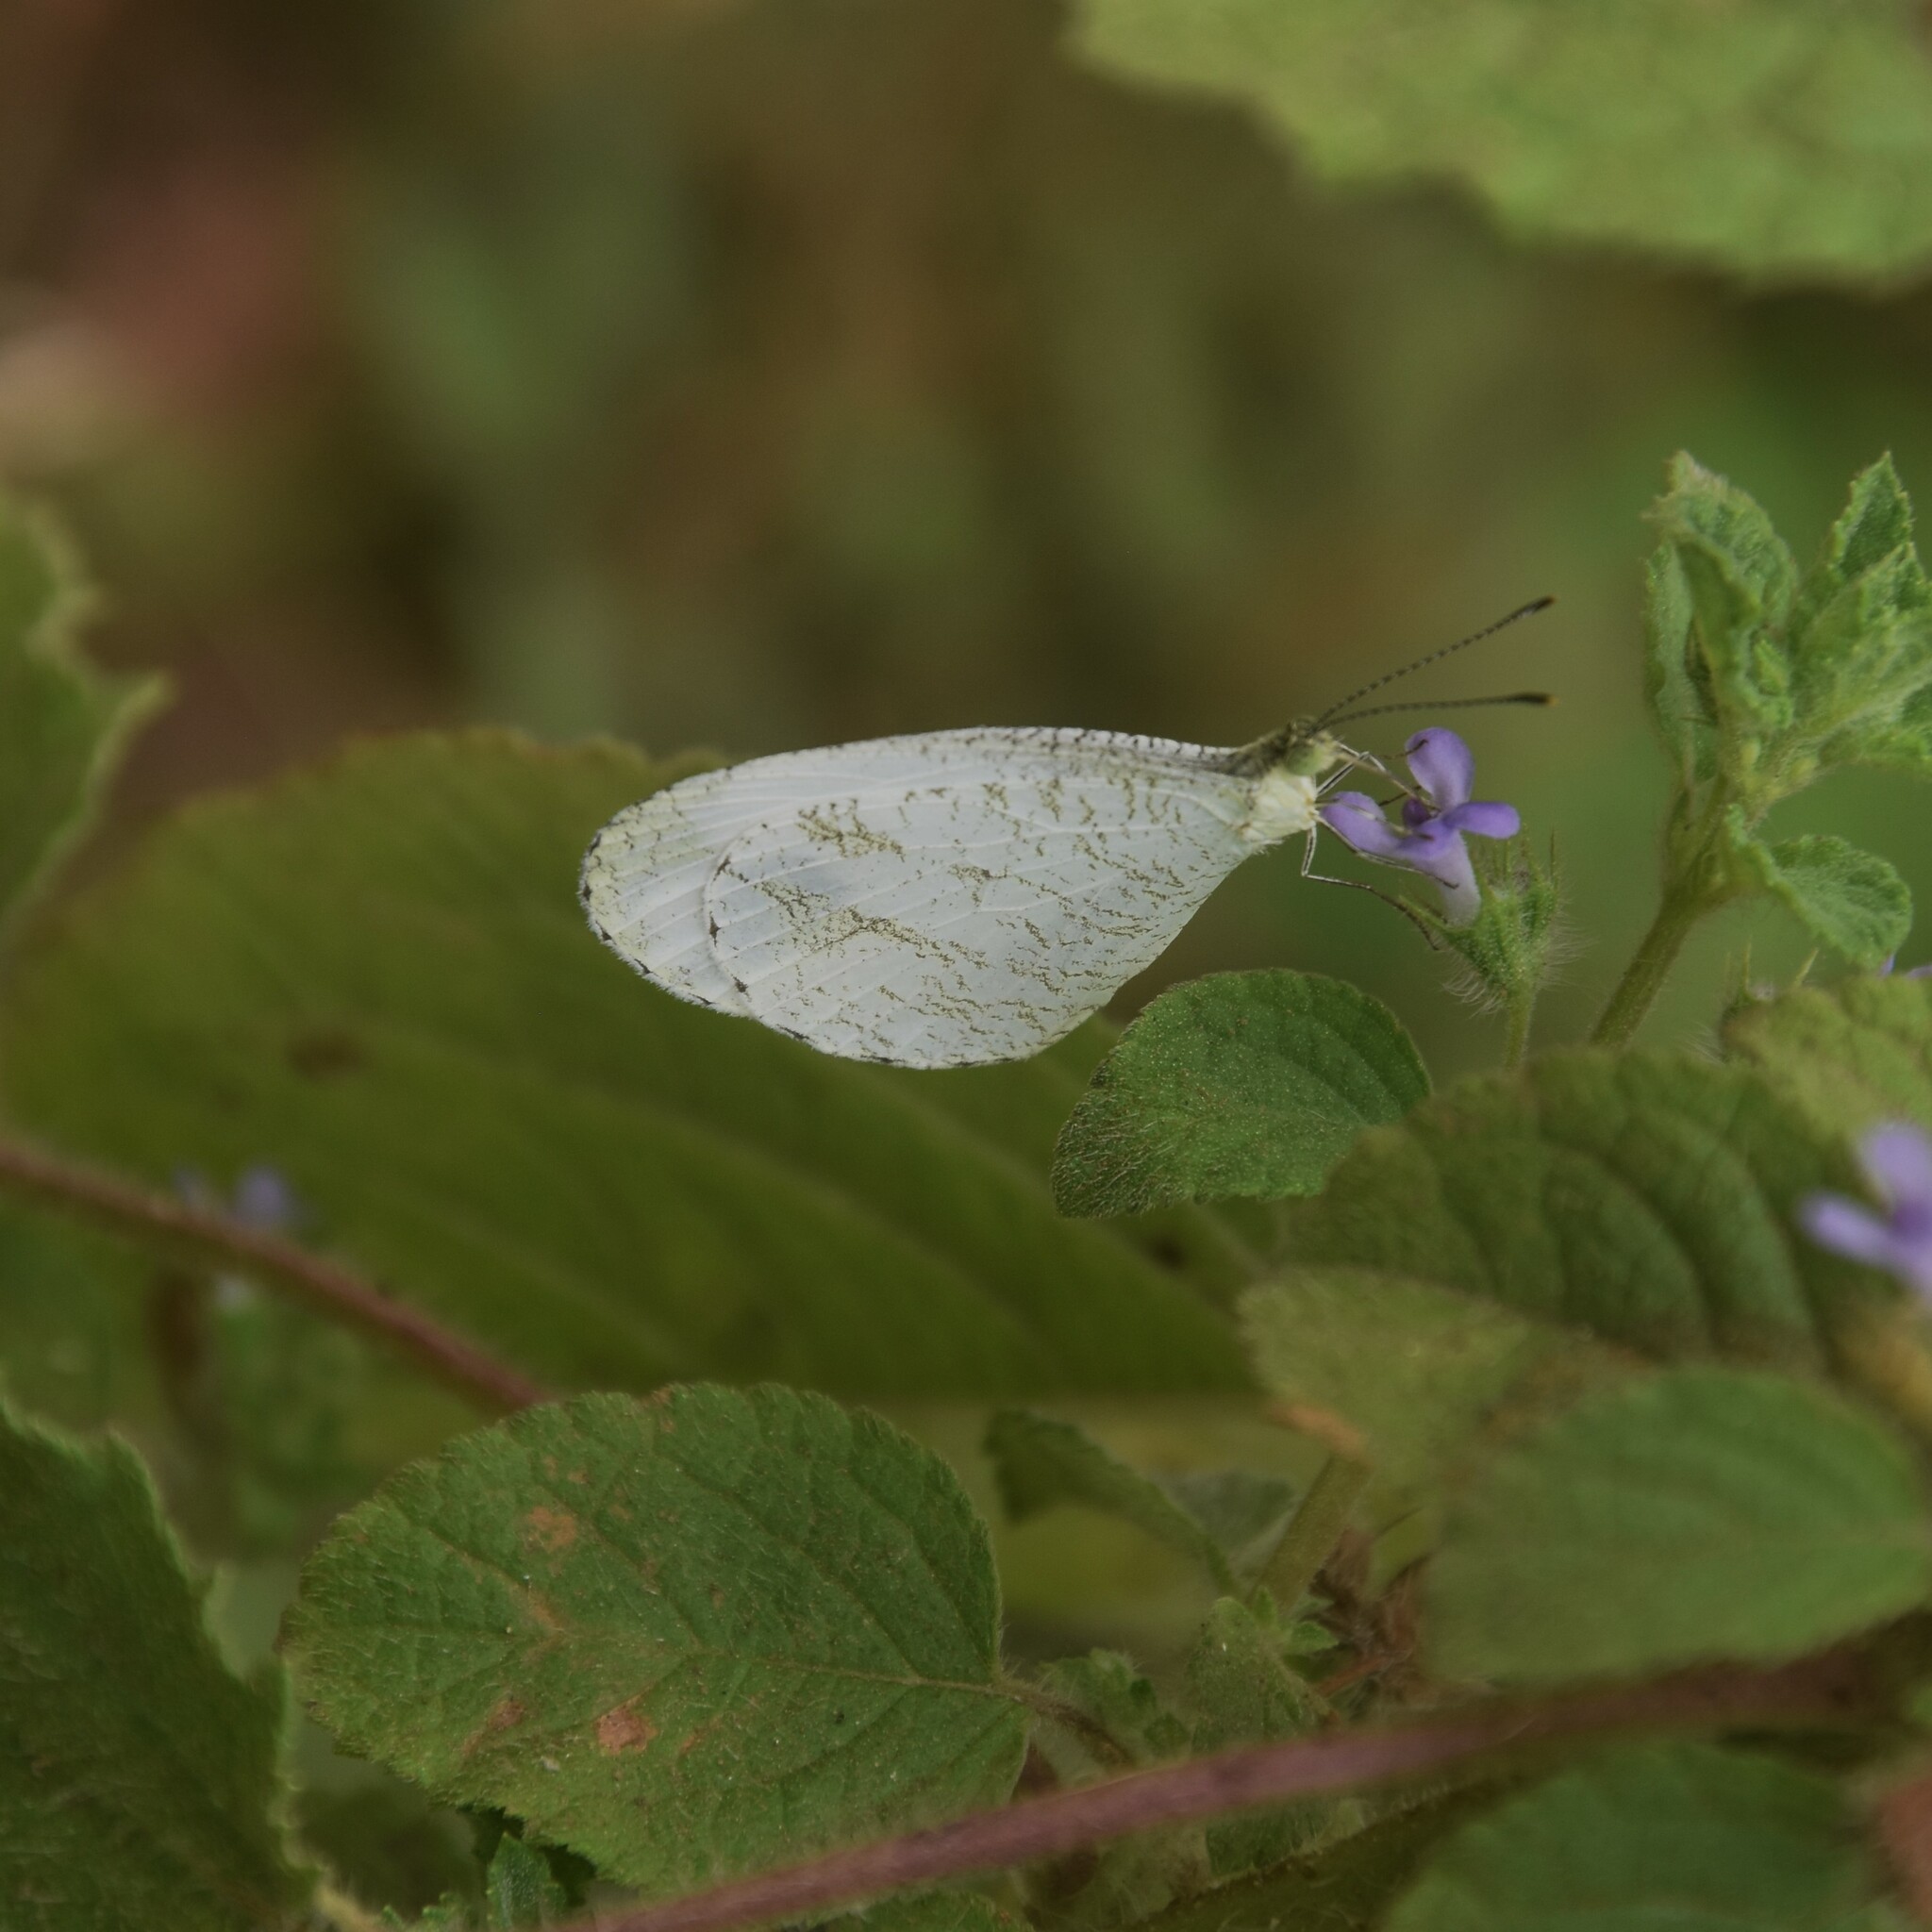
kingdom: Animalia
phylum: Arthropoda
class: Insecta
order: Lepidoptera
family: Pieridae
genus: Leptosia
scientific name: Leptosia nina
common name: Psyche
